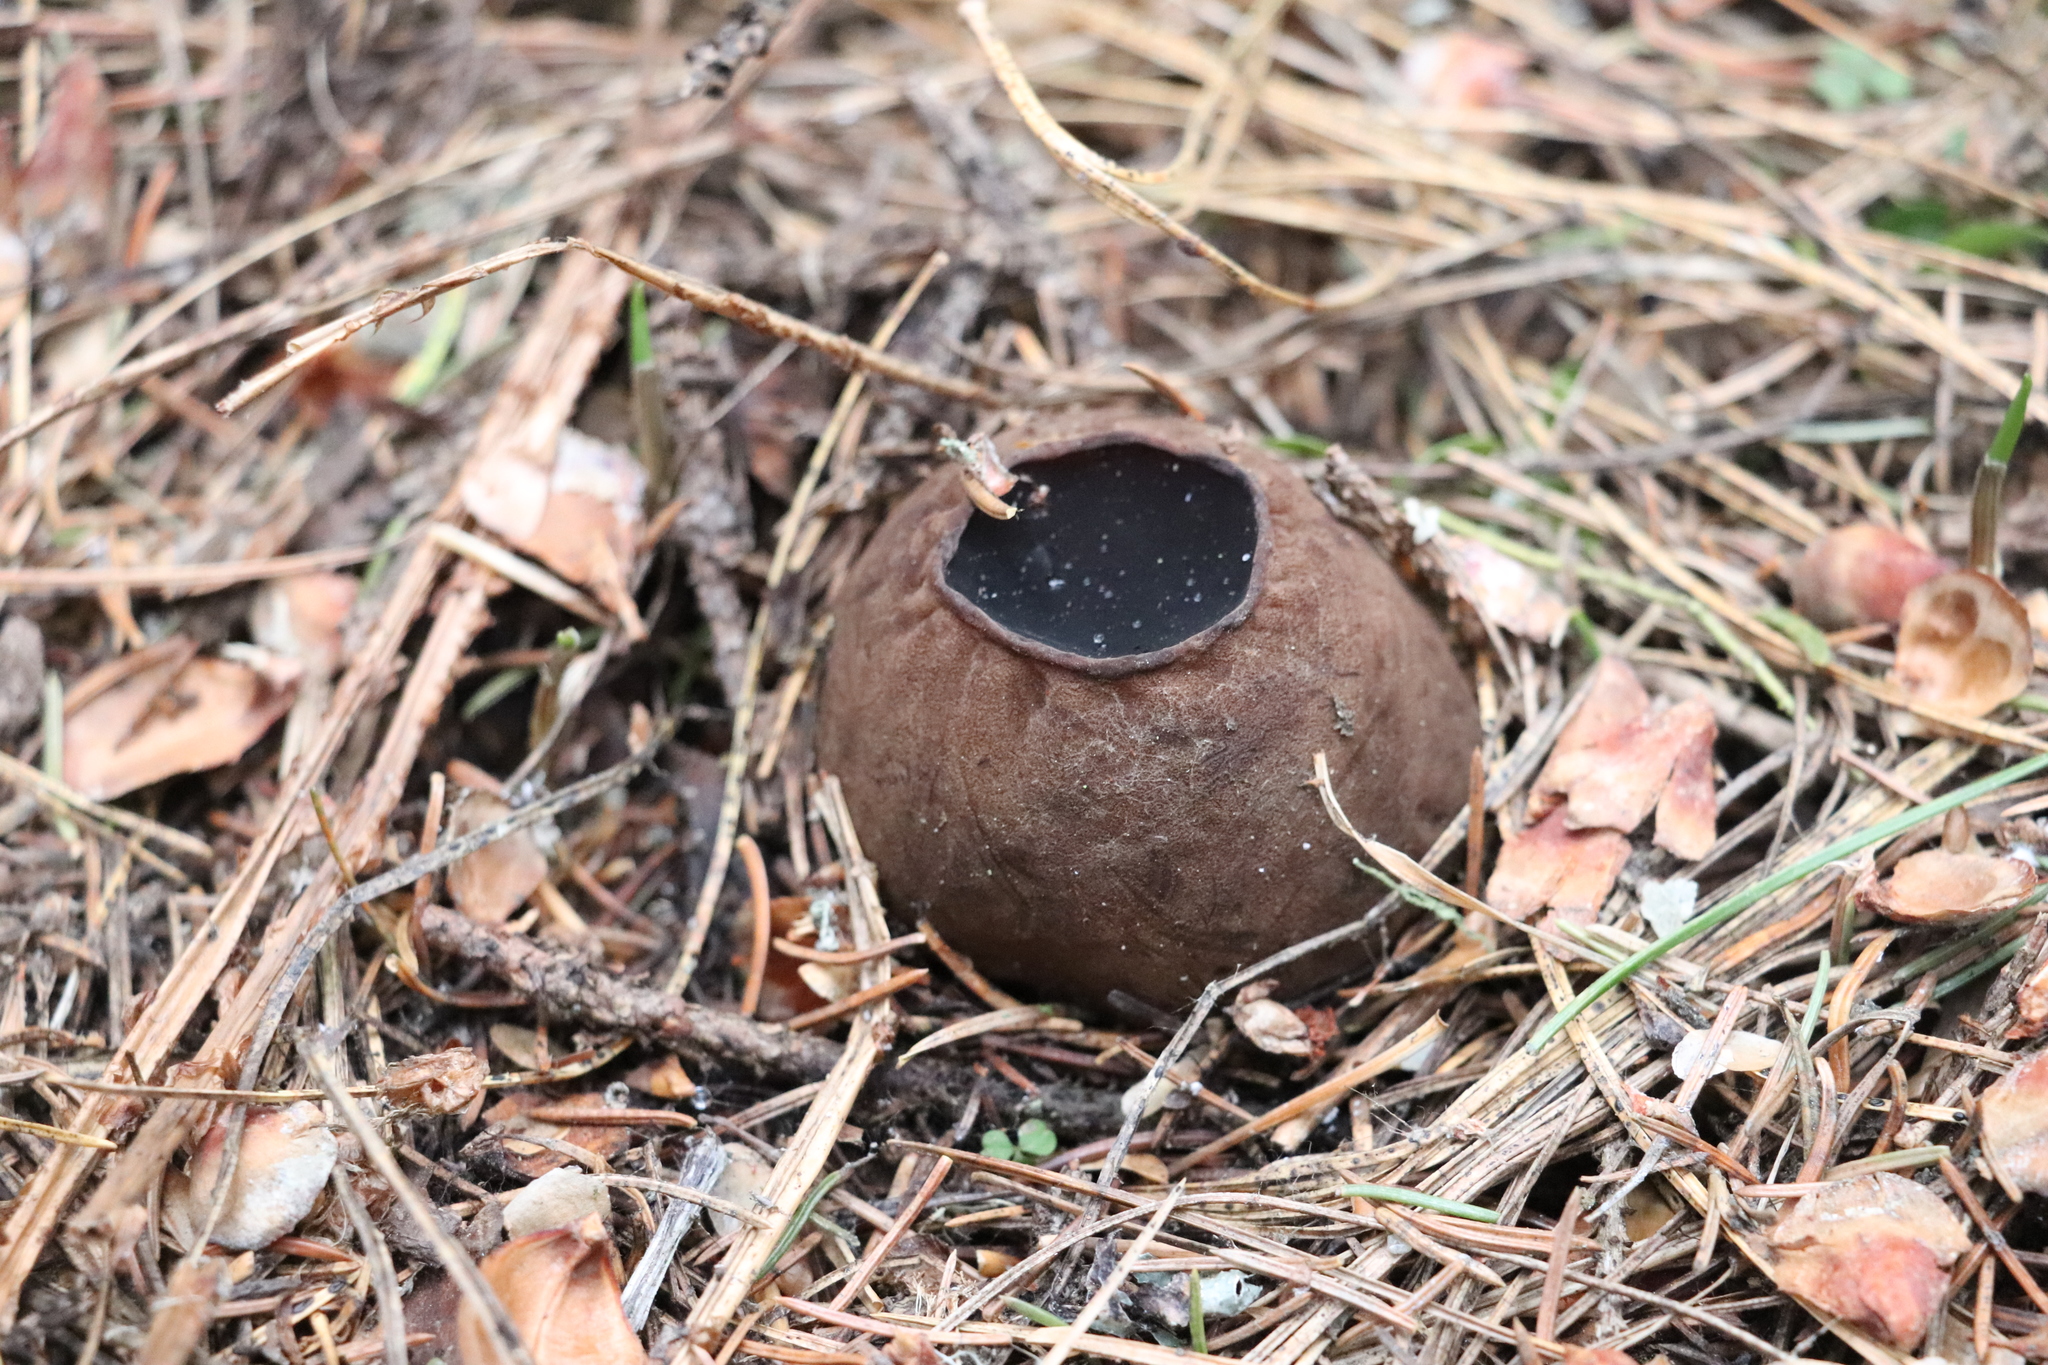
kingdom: Fungi
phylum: Ascomycota
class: Pezizomycetes
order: Pezizales
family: Sarcosomataceae
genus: Sarcosoma
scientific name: Sarcosoma globosum
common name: Charred-pancake cup
